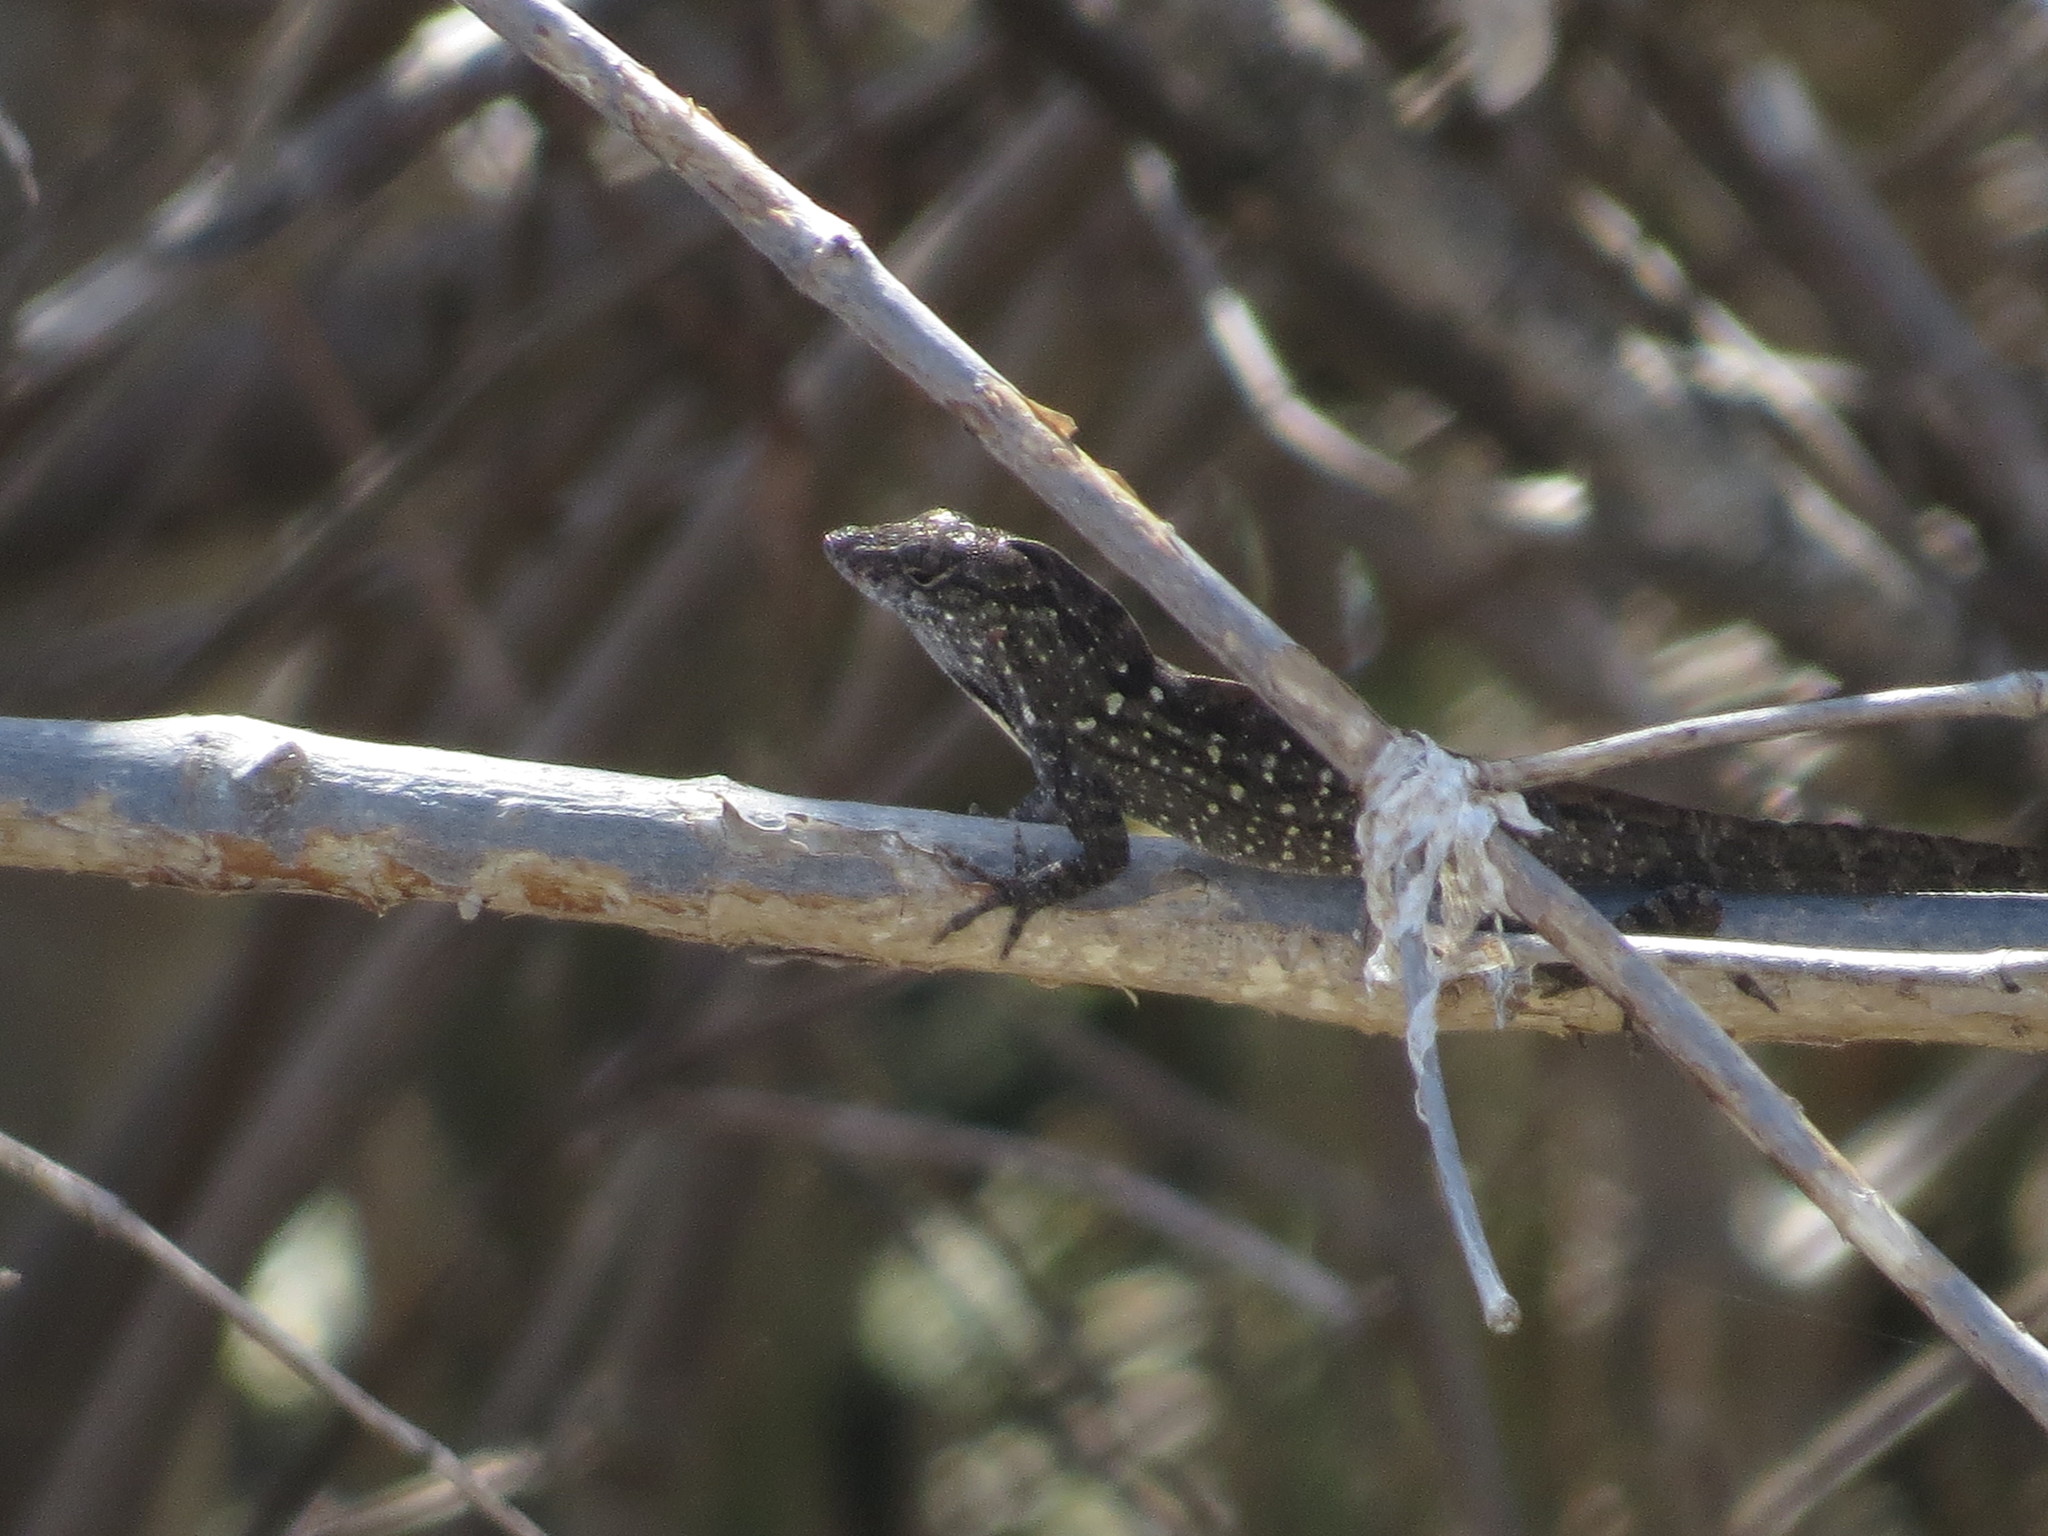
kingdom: Animalia
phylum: Chordata
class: Squamata
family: Dactyloidae
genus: Anolis
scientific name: Anolis sagrei
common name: Brown anole
